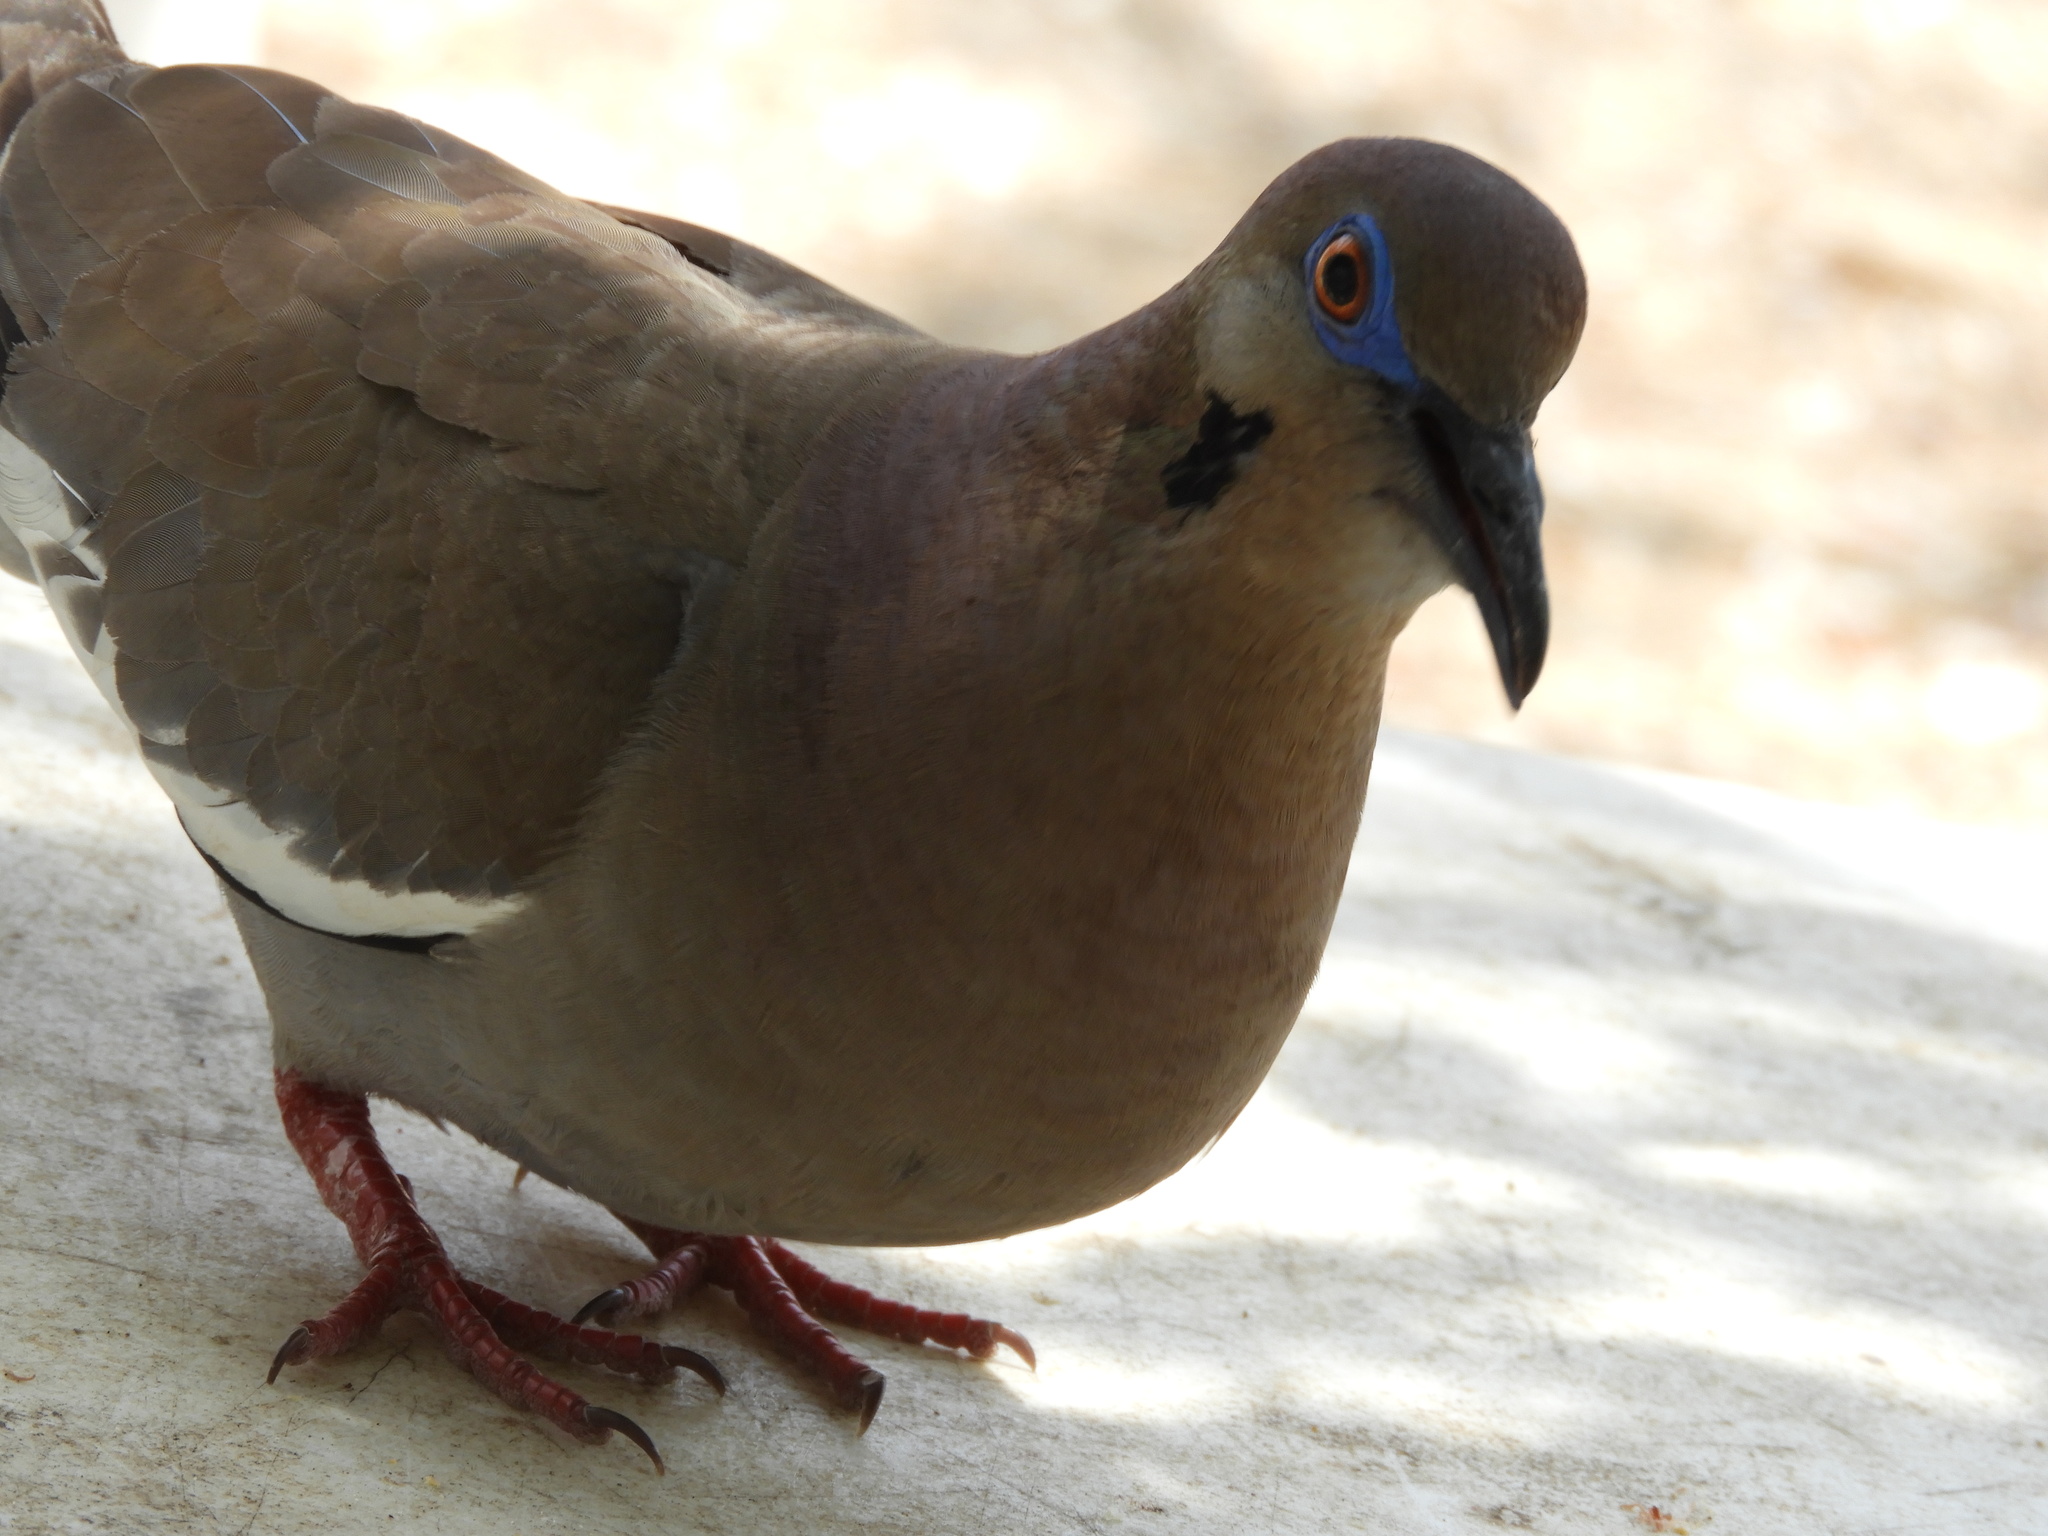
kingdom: Animalia
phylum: Chordata
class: Aves
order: Columbiformes
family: Columbidae
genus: Zenaida
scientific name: Zenaida asiatica
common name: White-winged dove
